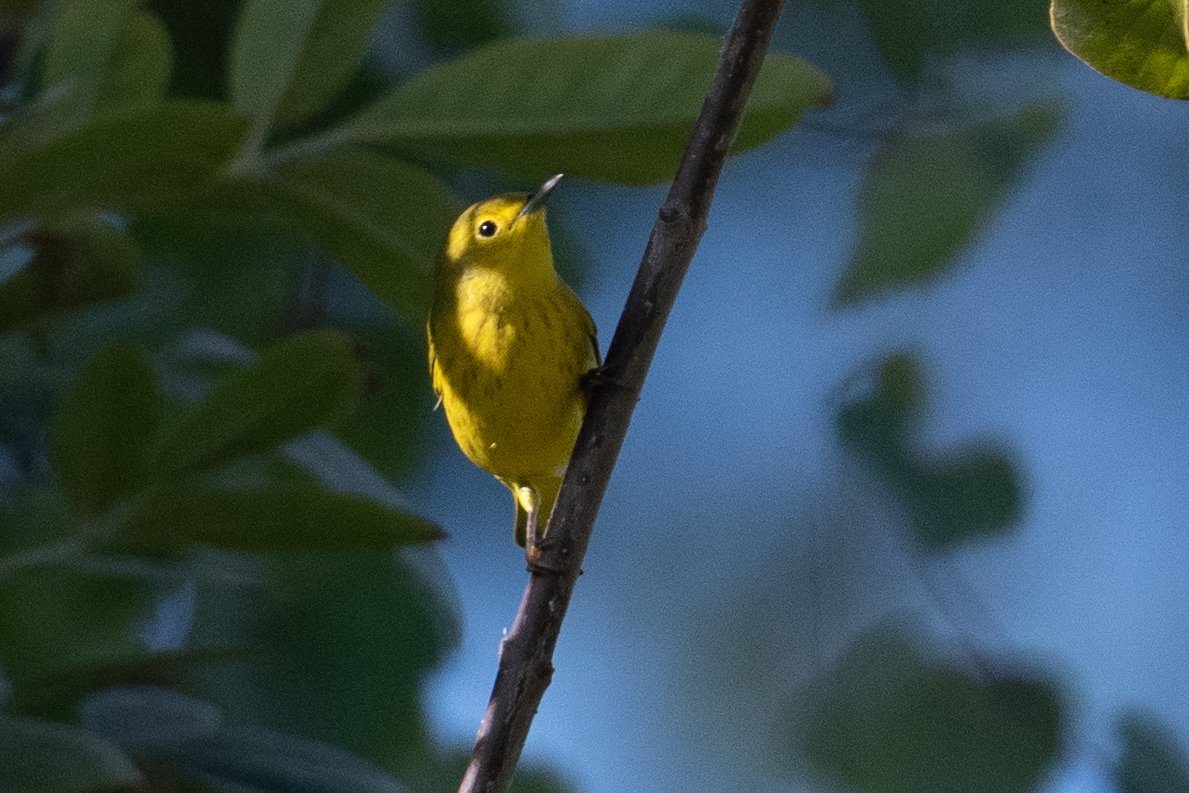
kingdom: Animalia
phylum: Chordata
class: Aves
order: Passeriformes
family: Parulidae
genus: Setophaga
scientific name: Setophaga petechia
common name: Yellow warbler
